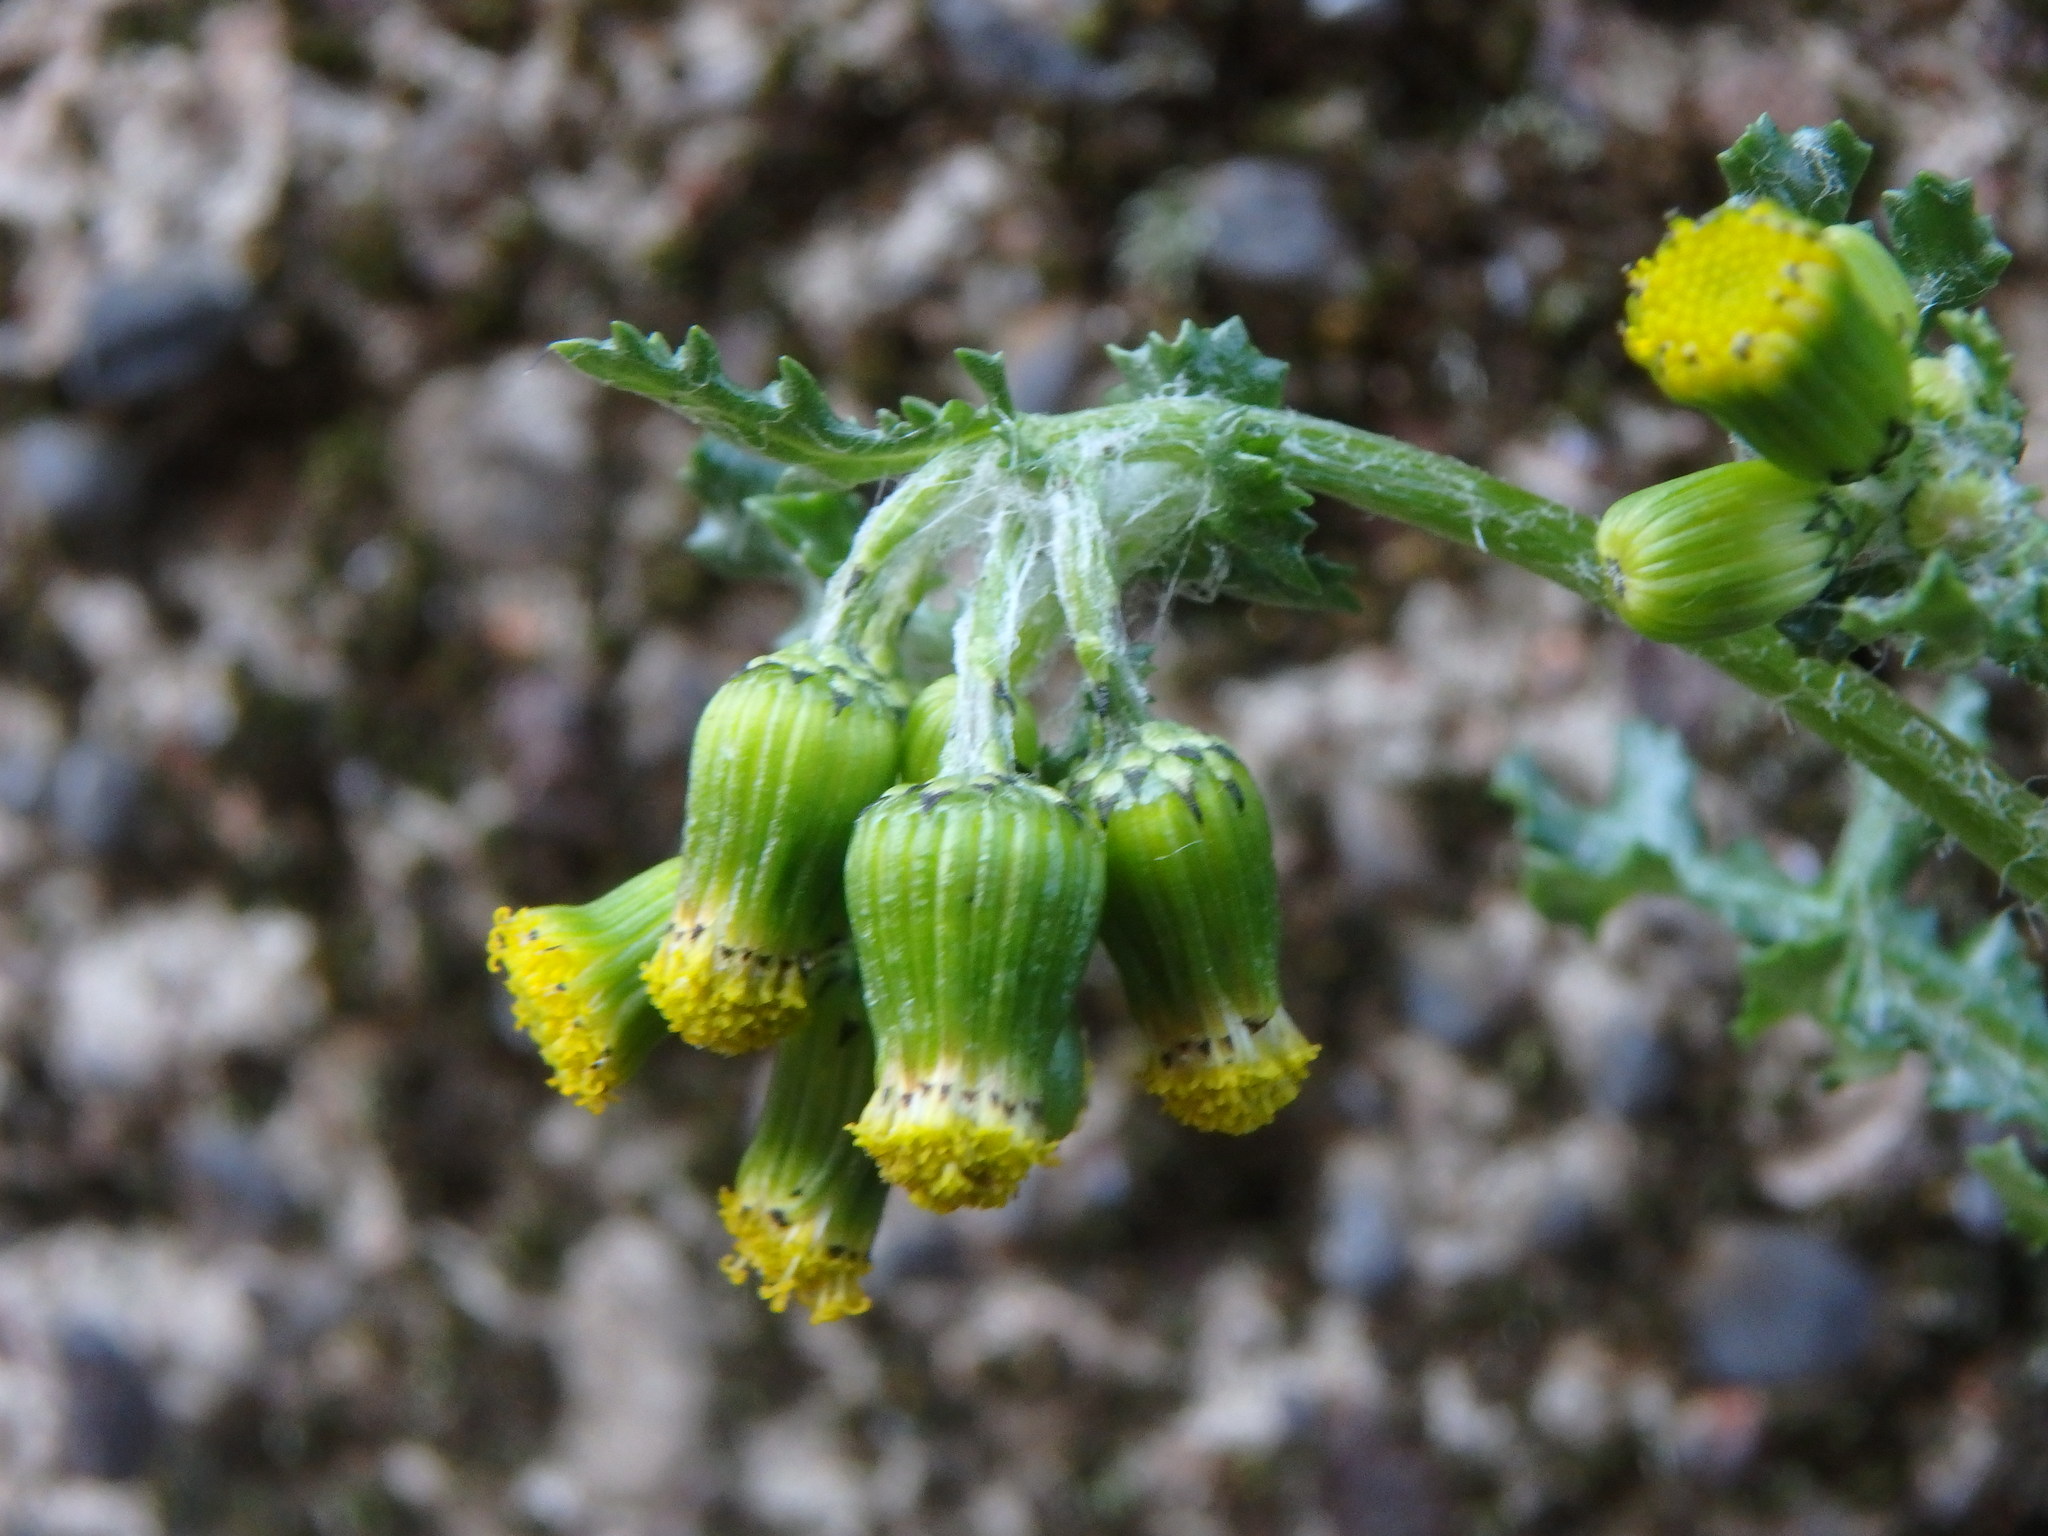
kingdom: Plantae
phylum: Tracheophyta
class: Magnoliopsida
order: Asterales
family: Asteraceae
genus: Senecio
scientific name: Senecio vulgaris
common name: Old-man-in-the-spring
